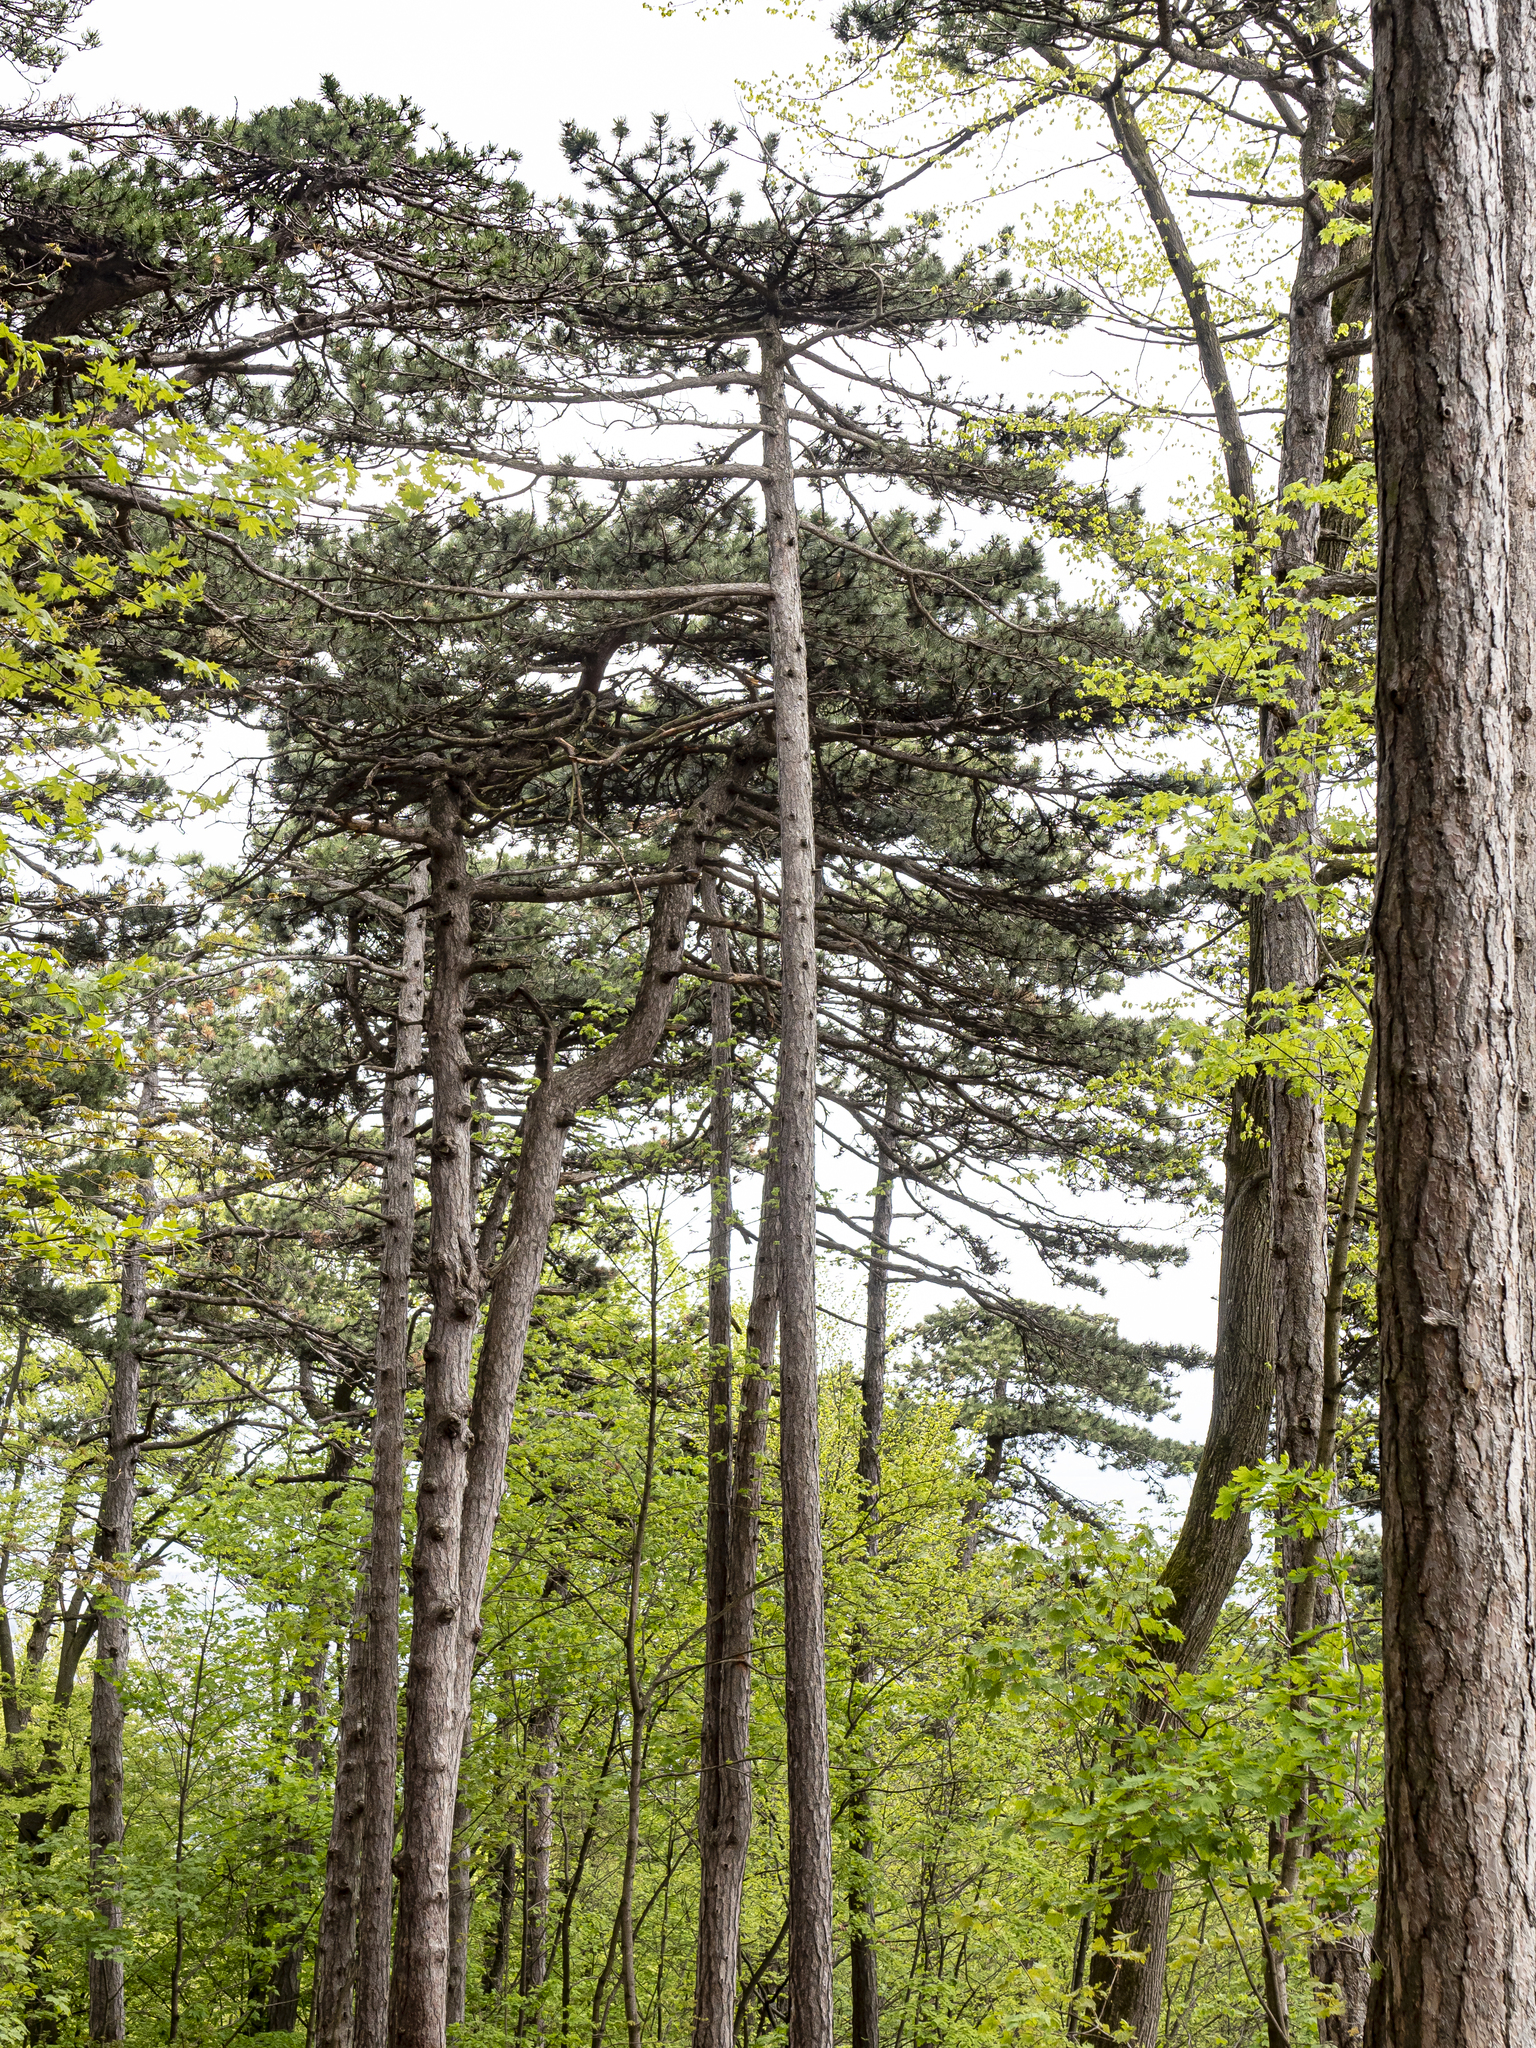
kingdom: Plantae
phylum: Tracheophyta
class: Pinopsida
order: Pinales
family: Pinaceae
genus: Pinus
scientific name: Pinus nigra
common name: Austrian pine
